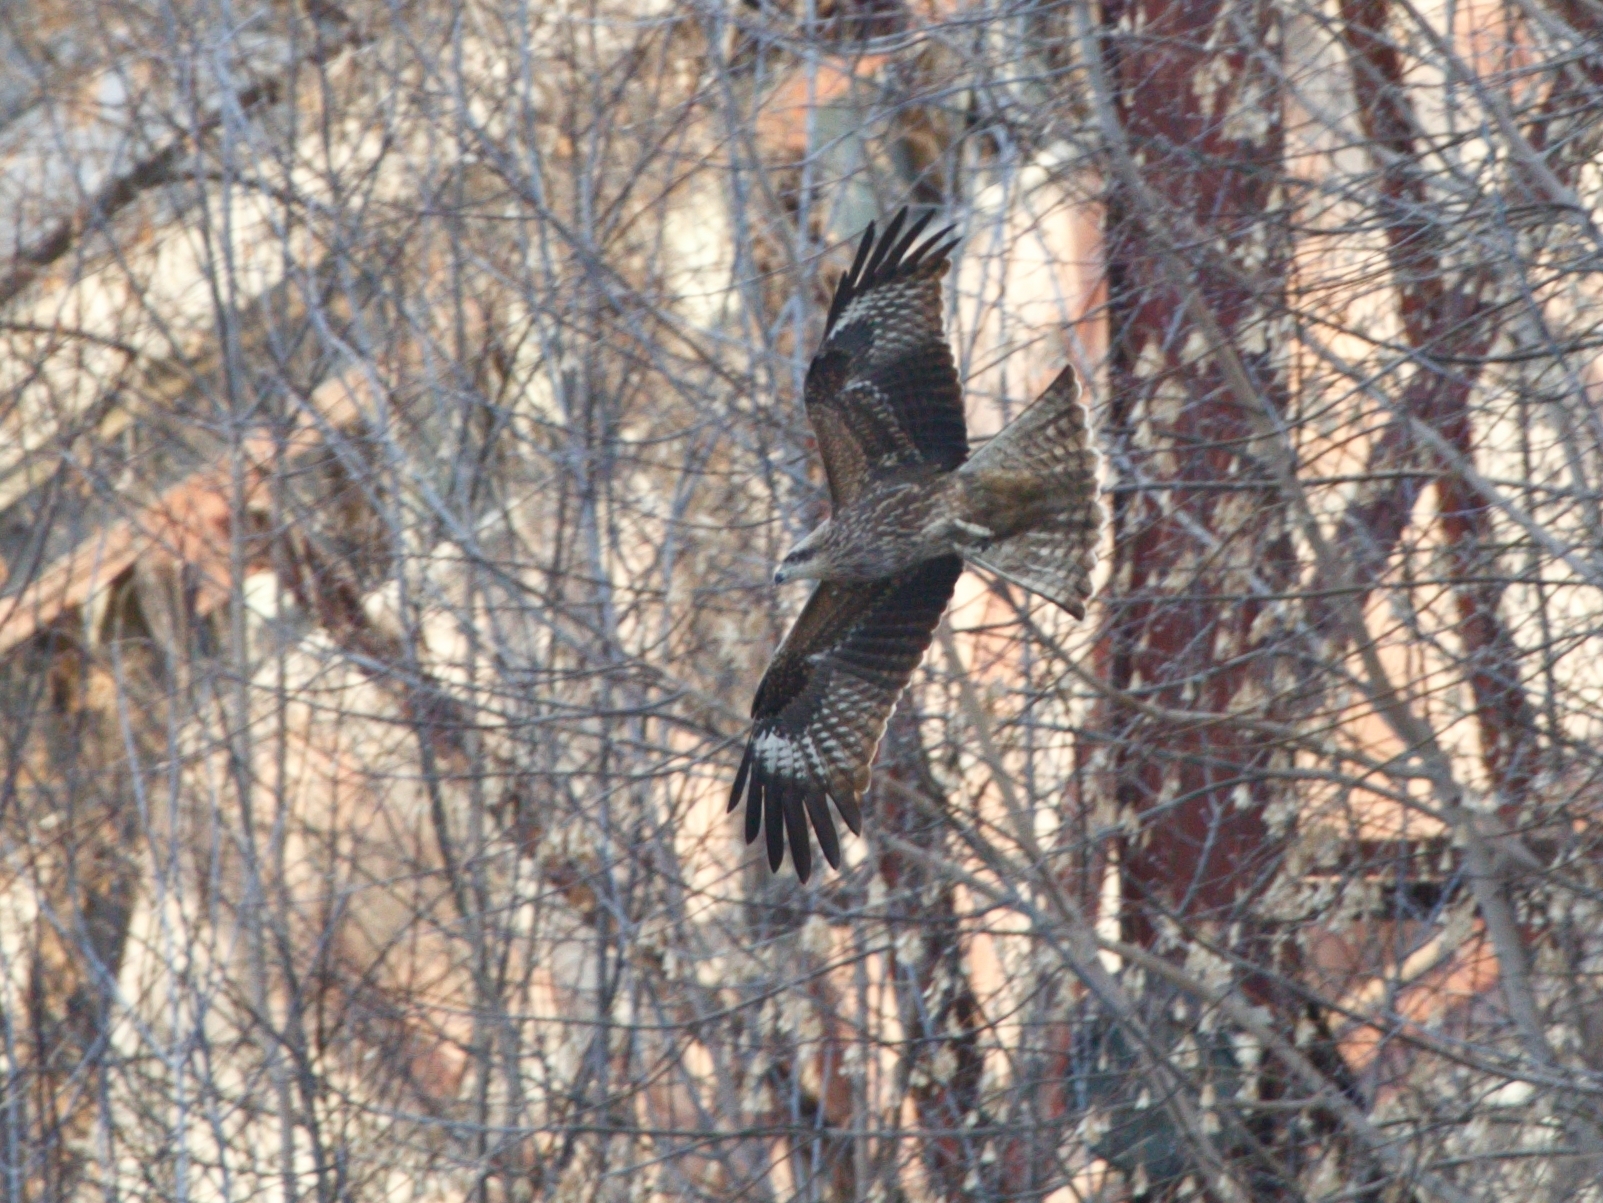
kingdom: Animalia
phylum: Chordata
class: Aves
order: Accipitriformes
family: Accipitridae
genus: Milvus
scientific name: Milvus migrans
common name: Black kite
